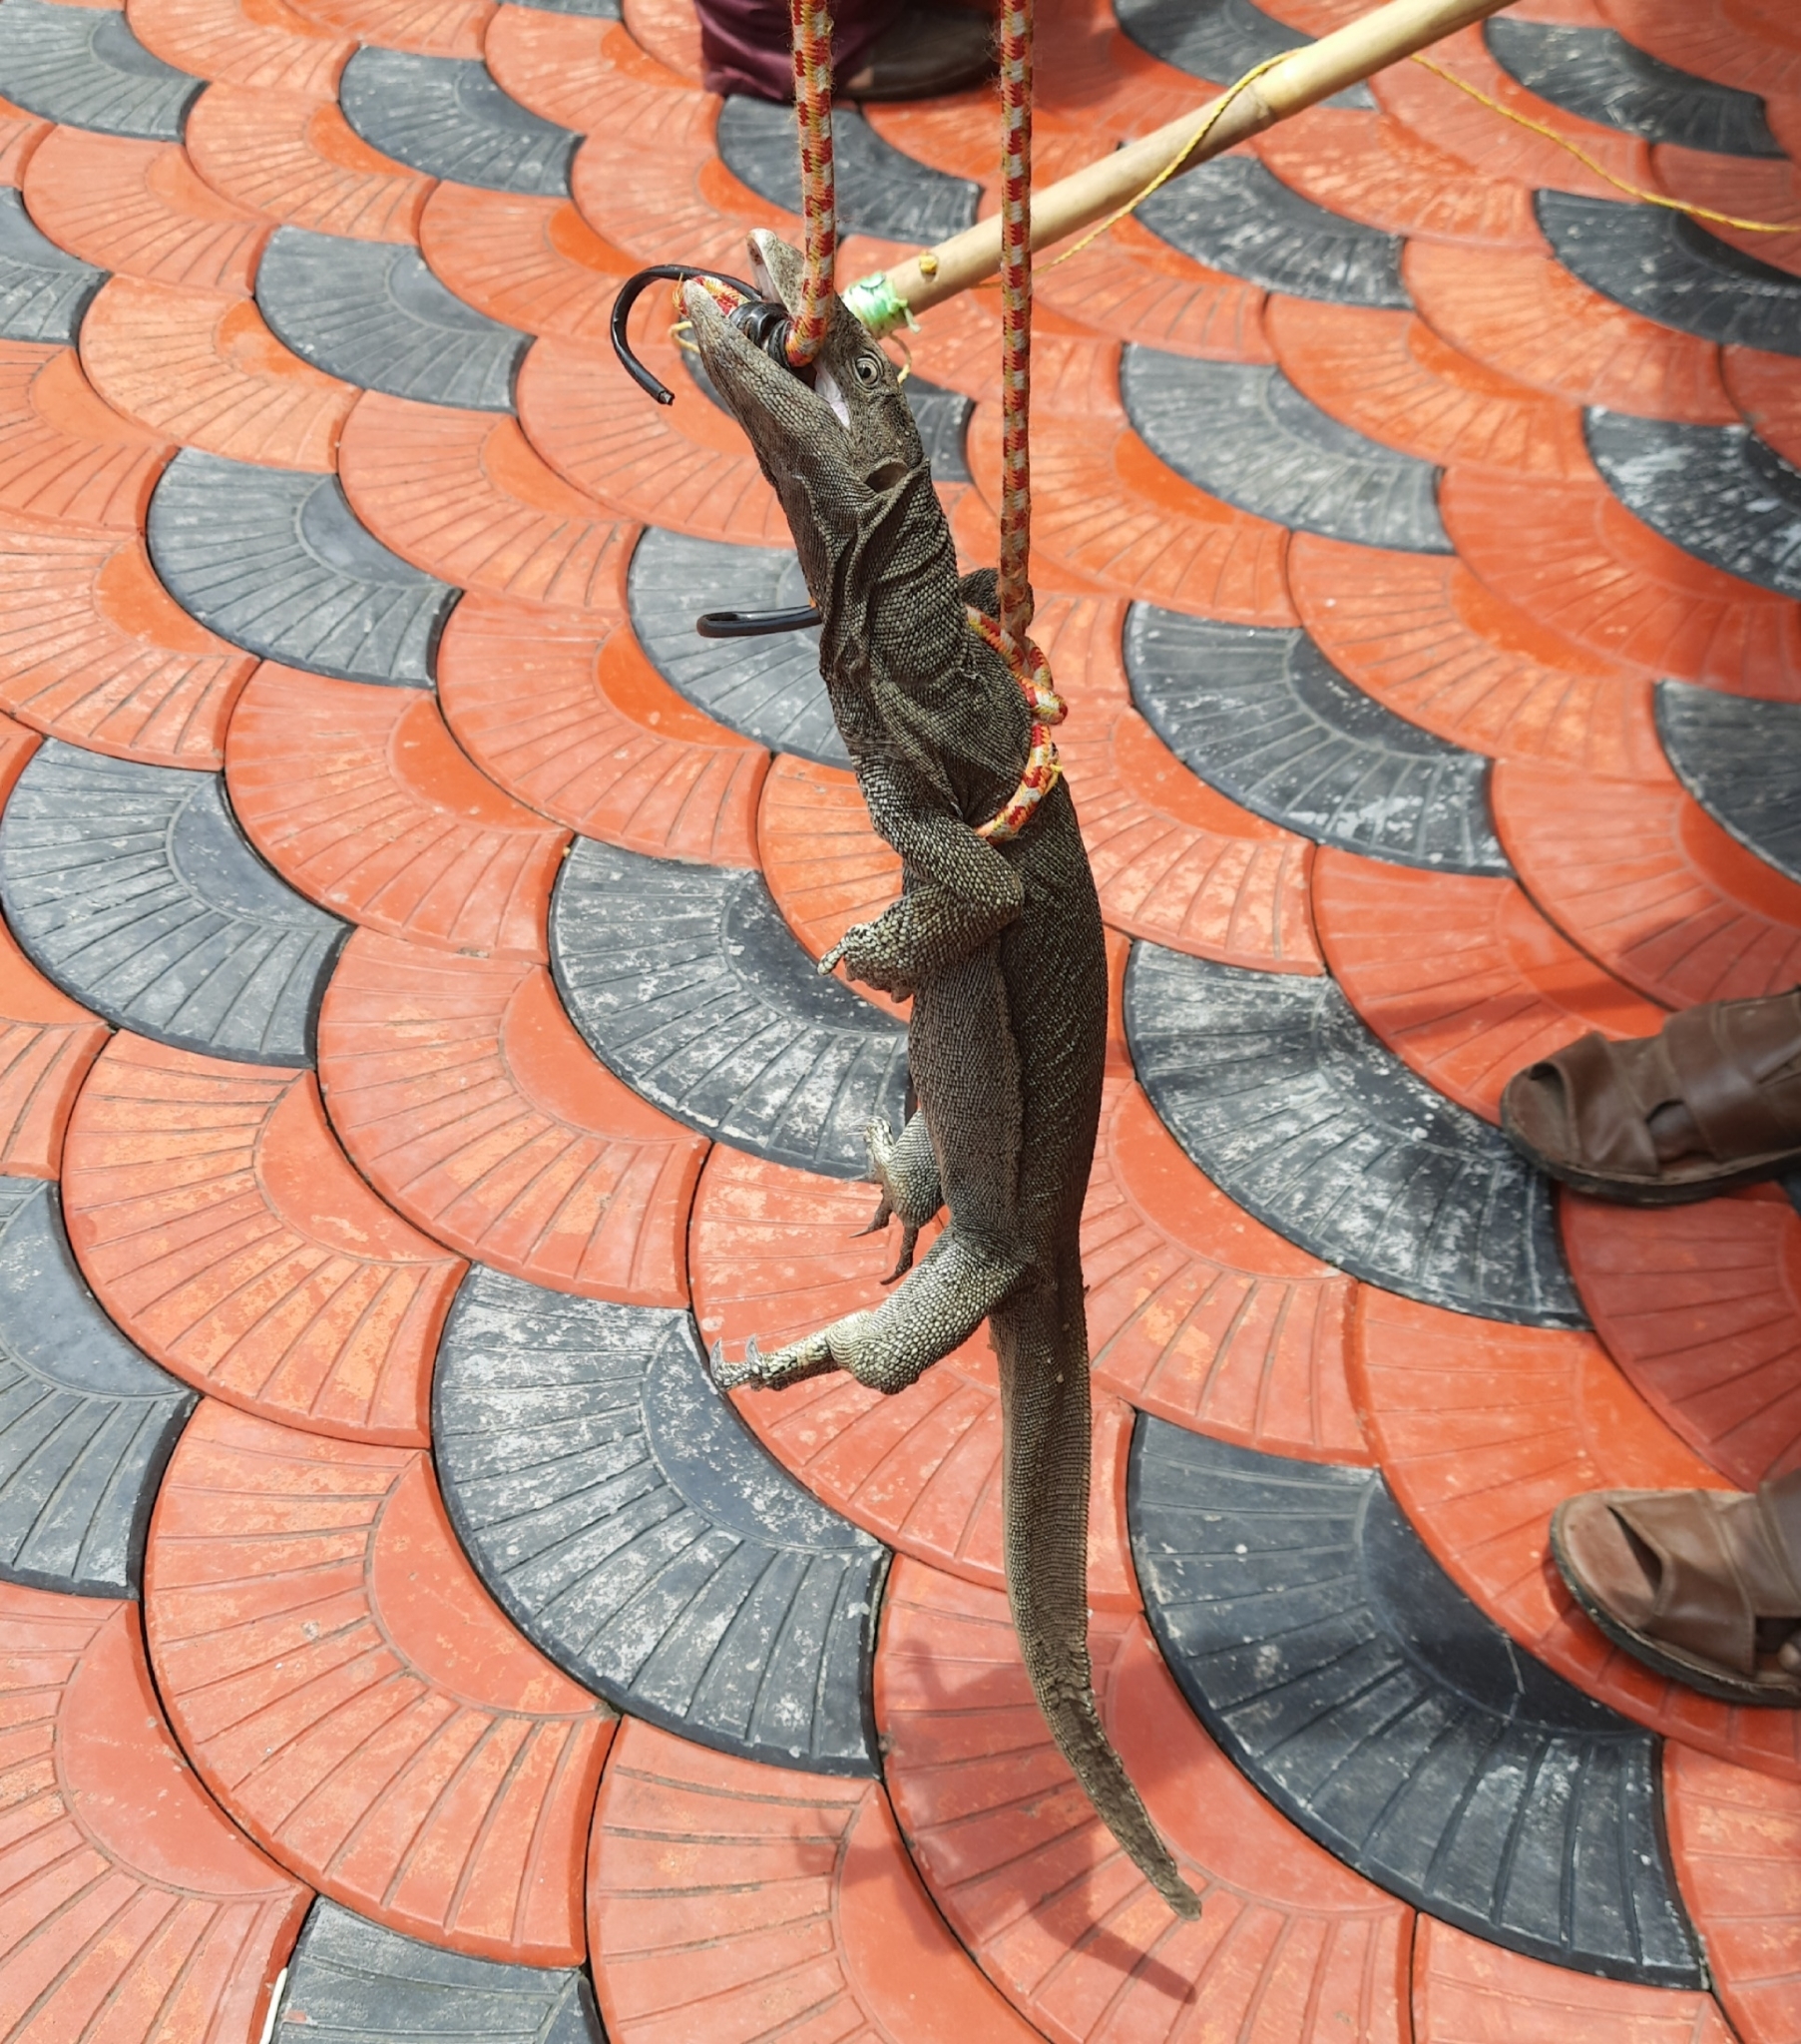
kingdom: Animalia
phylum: Chordata
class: Squamata
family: Varanidae
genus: Varanus
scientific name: Varanus bengalensis
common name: Bengal monitor
